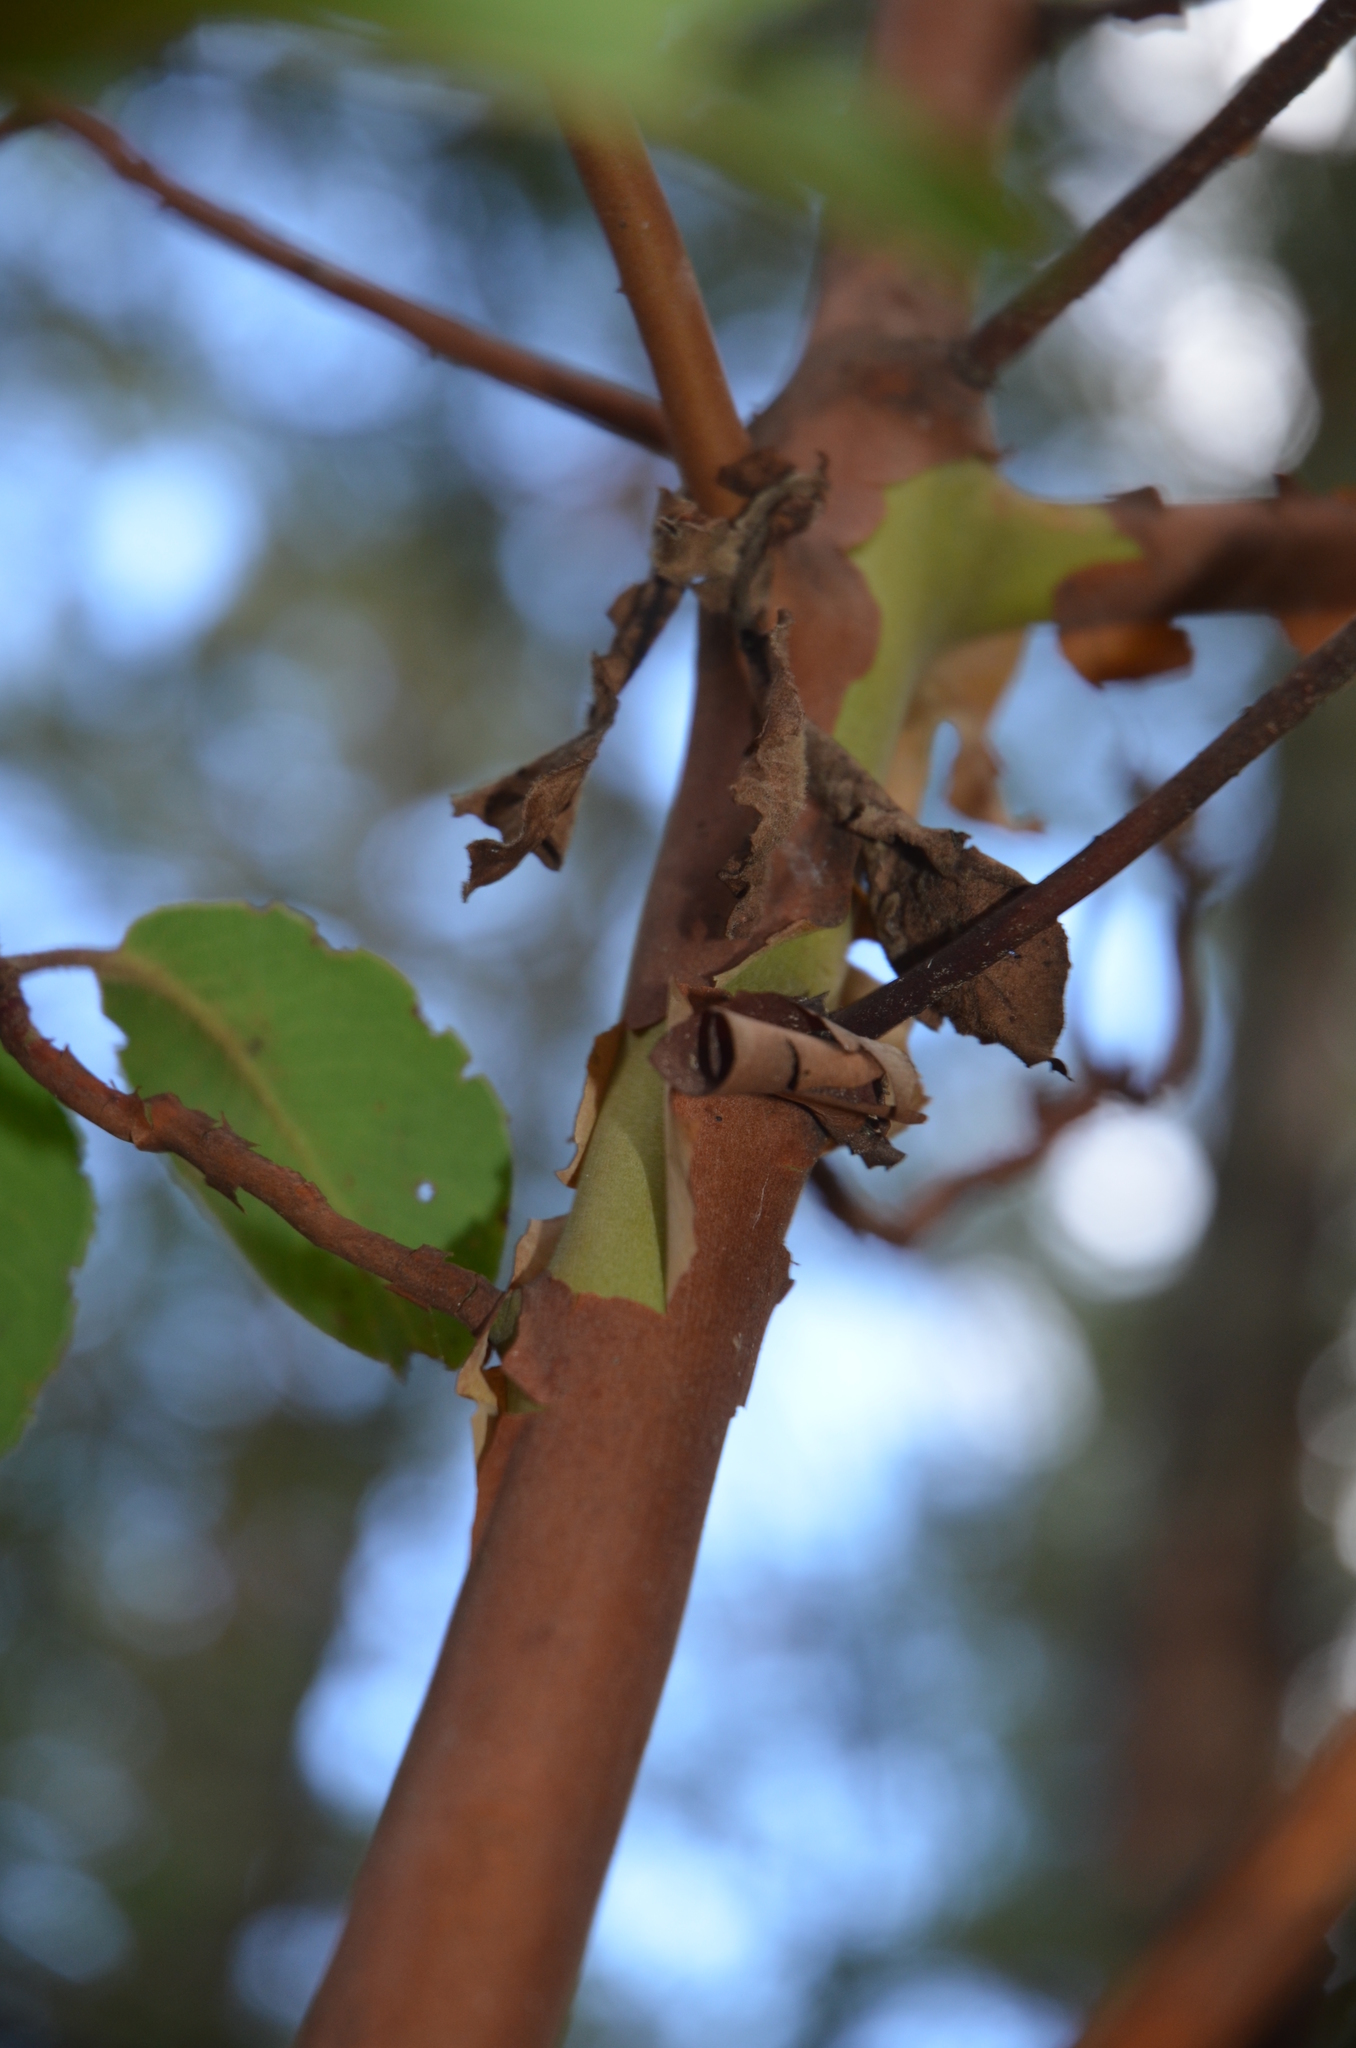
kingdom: Plantae
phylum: Tracheophyta
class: Magnoliopsida
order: Ericales
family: Ericaceae
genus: Arbutus
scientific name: Arbutus xalapensis
